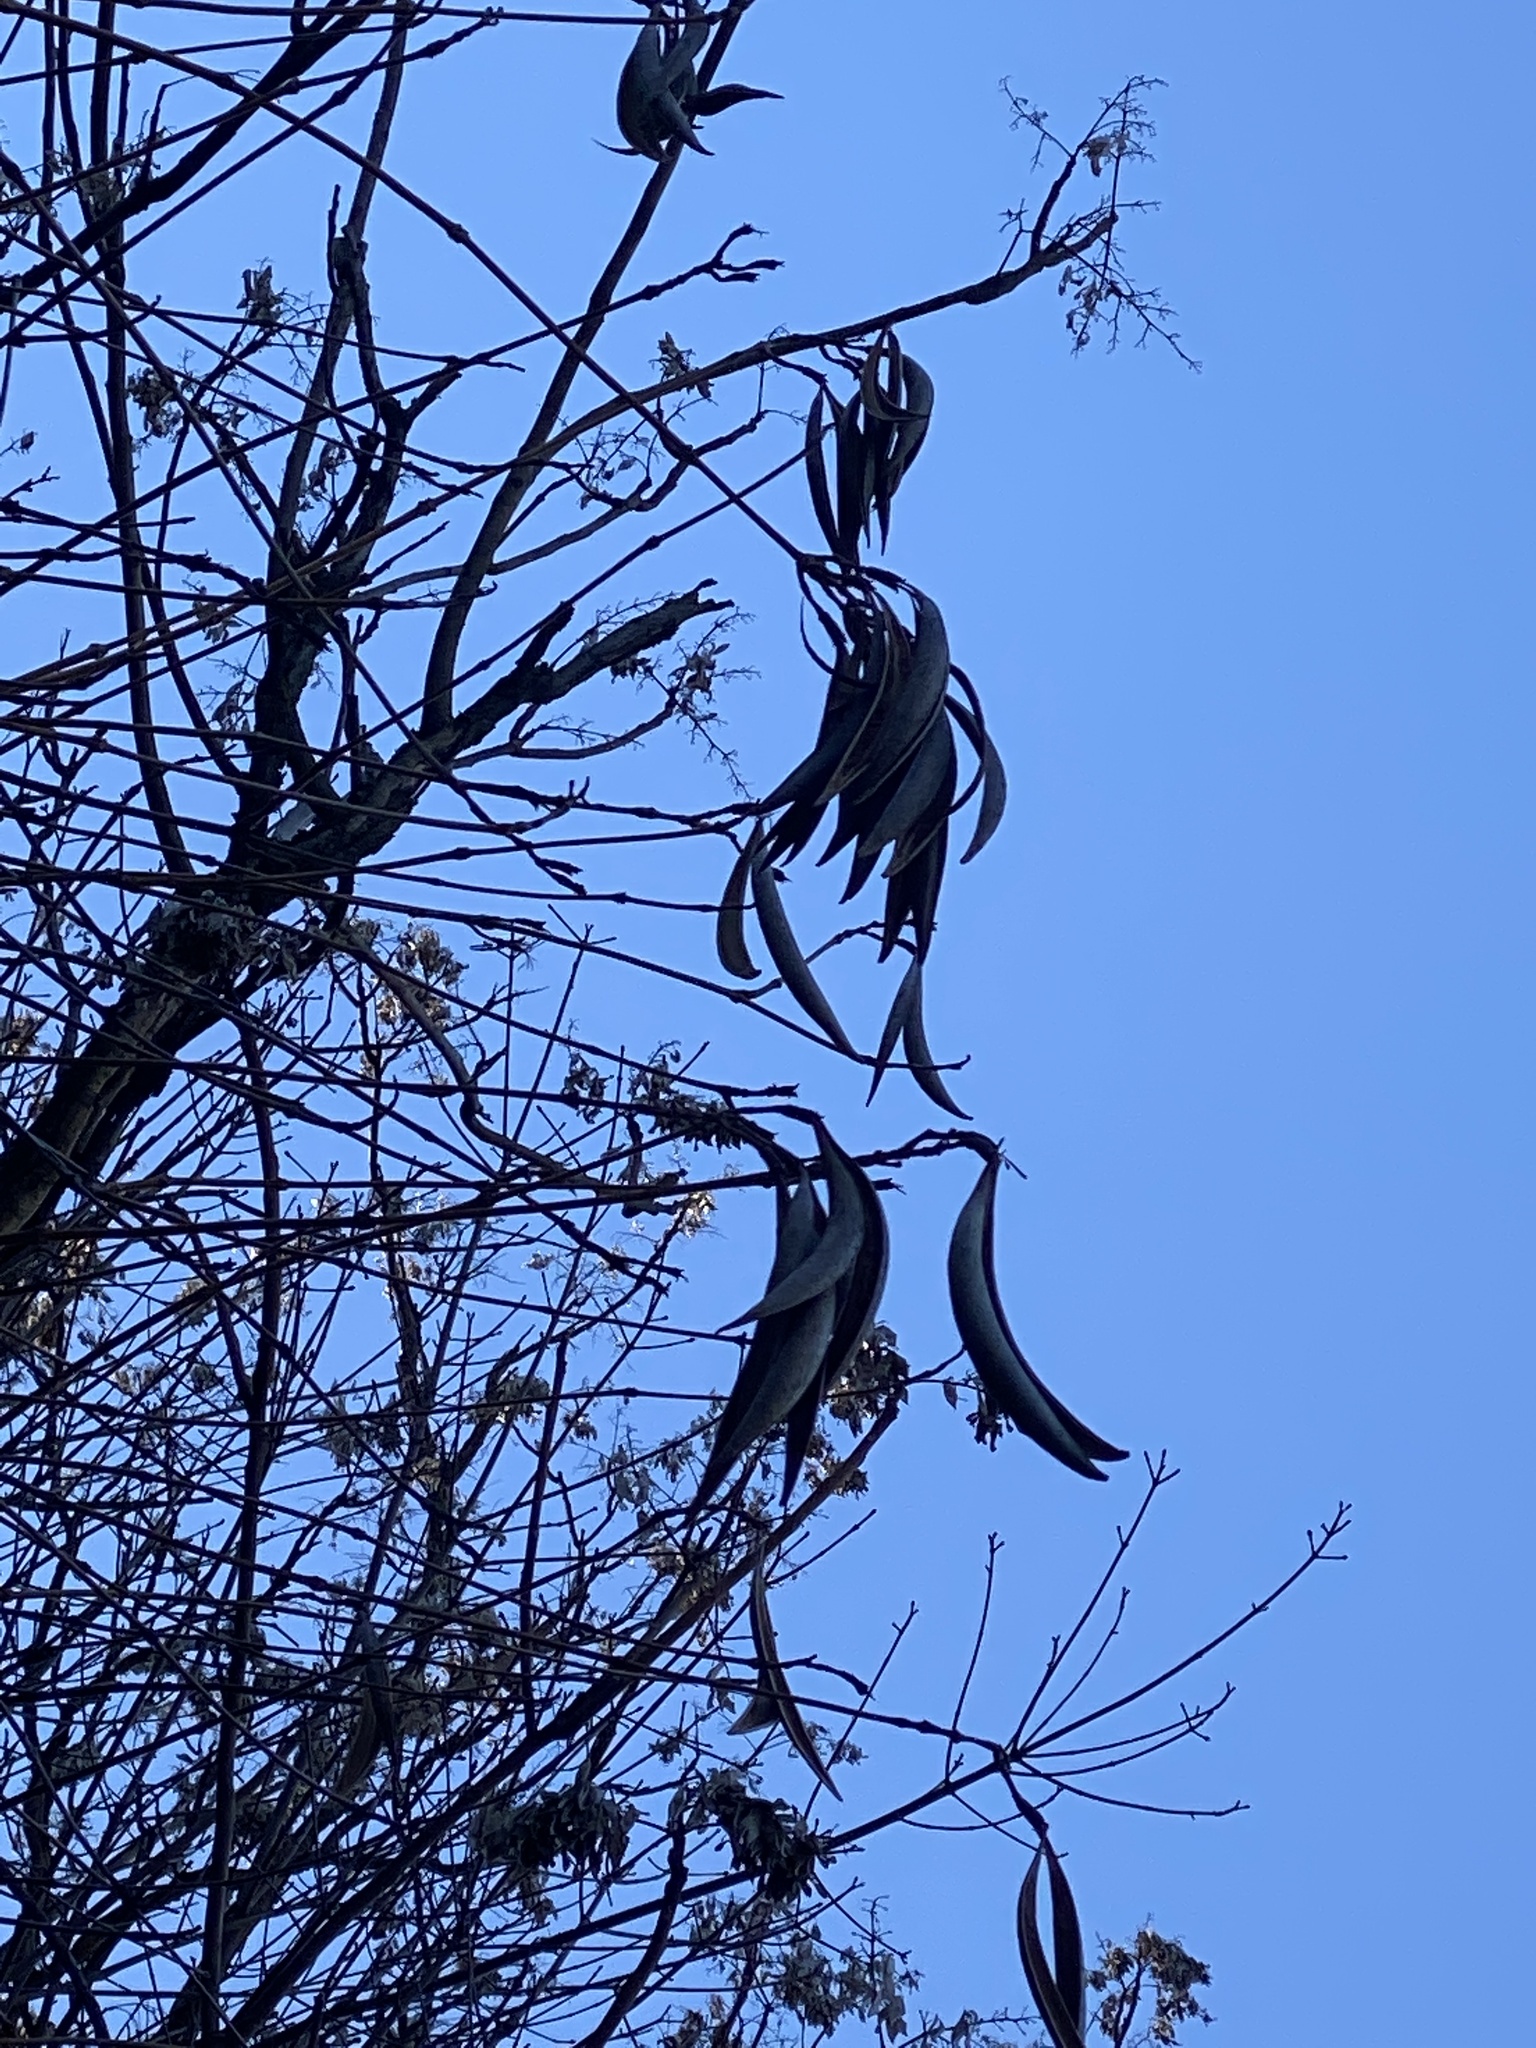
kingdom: Plantae
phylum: Tracheophyta
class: Magnoliopsida
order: Lamiales
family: Bignoniaceae
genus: Campsis
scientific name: Campsis radicans
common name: Trumpet-creeper
